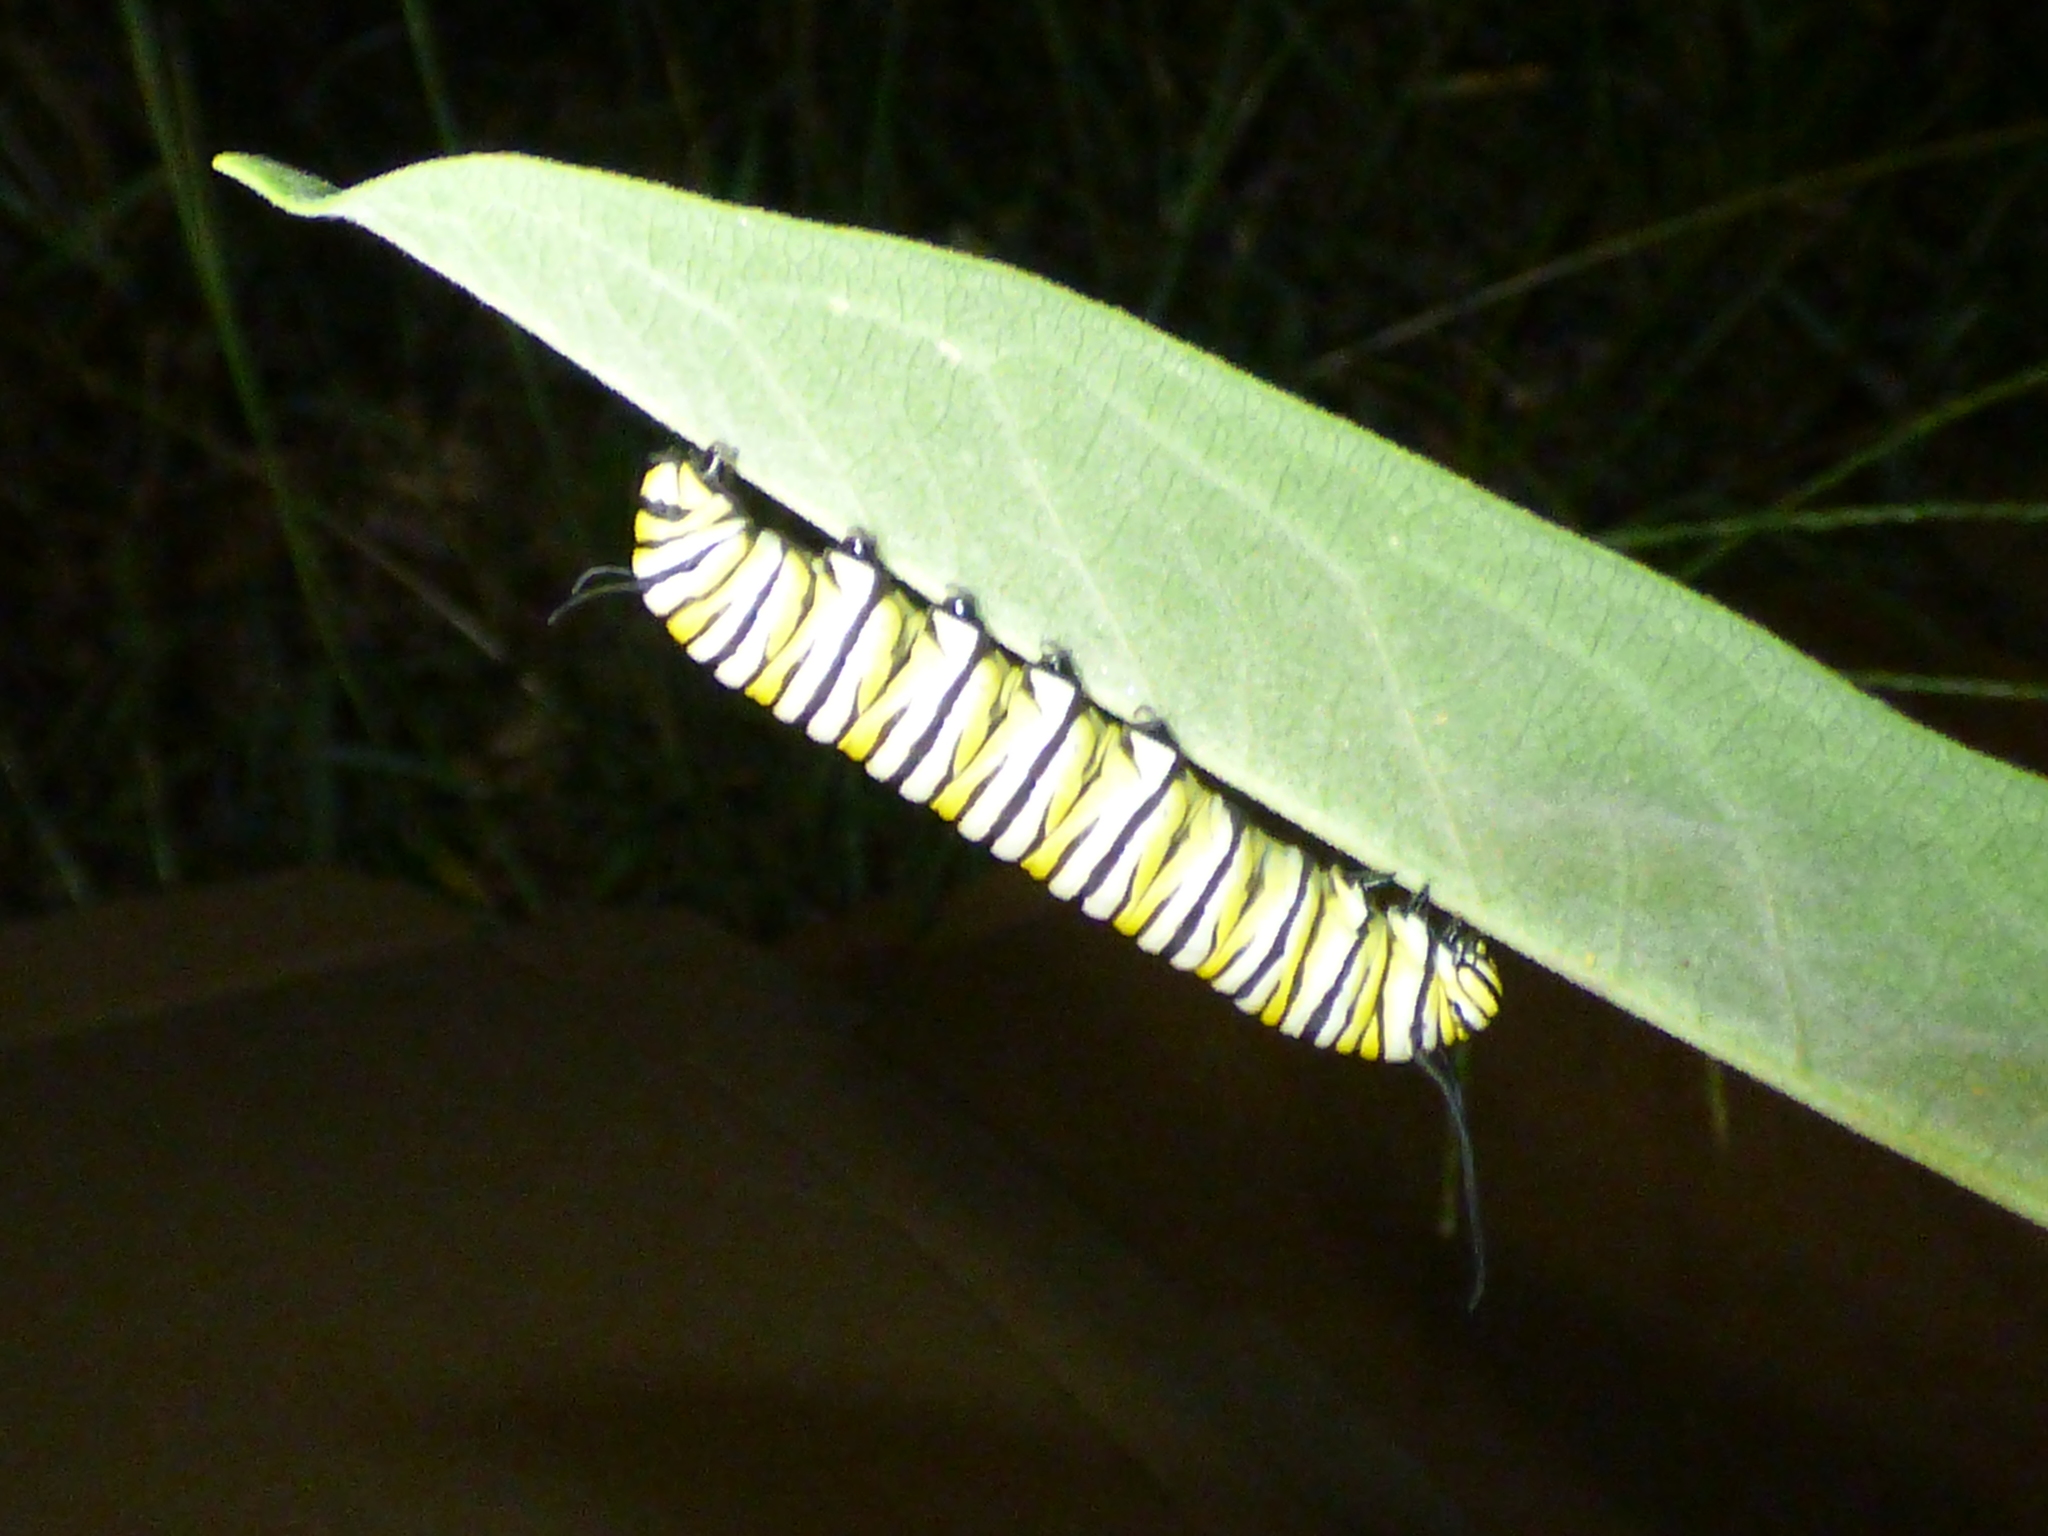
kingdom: Animalia
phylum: Arthropoda
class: Insecta
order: Lepidoptera
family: Nymphalidae
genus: Danaus
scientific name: Danaus plexippus
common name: Monarch
